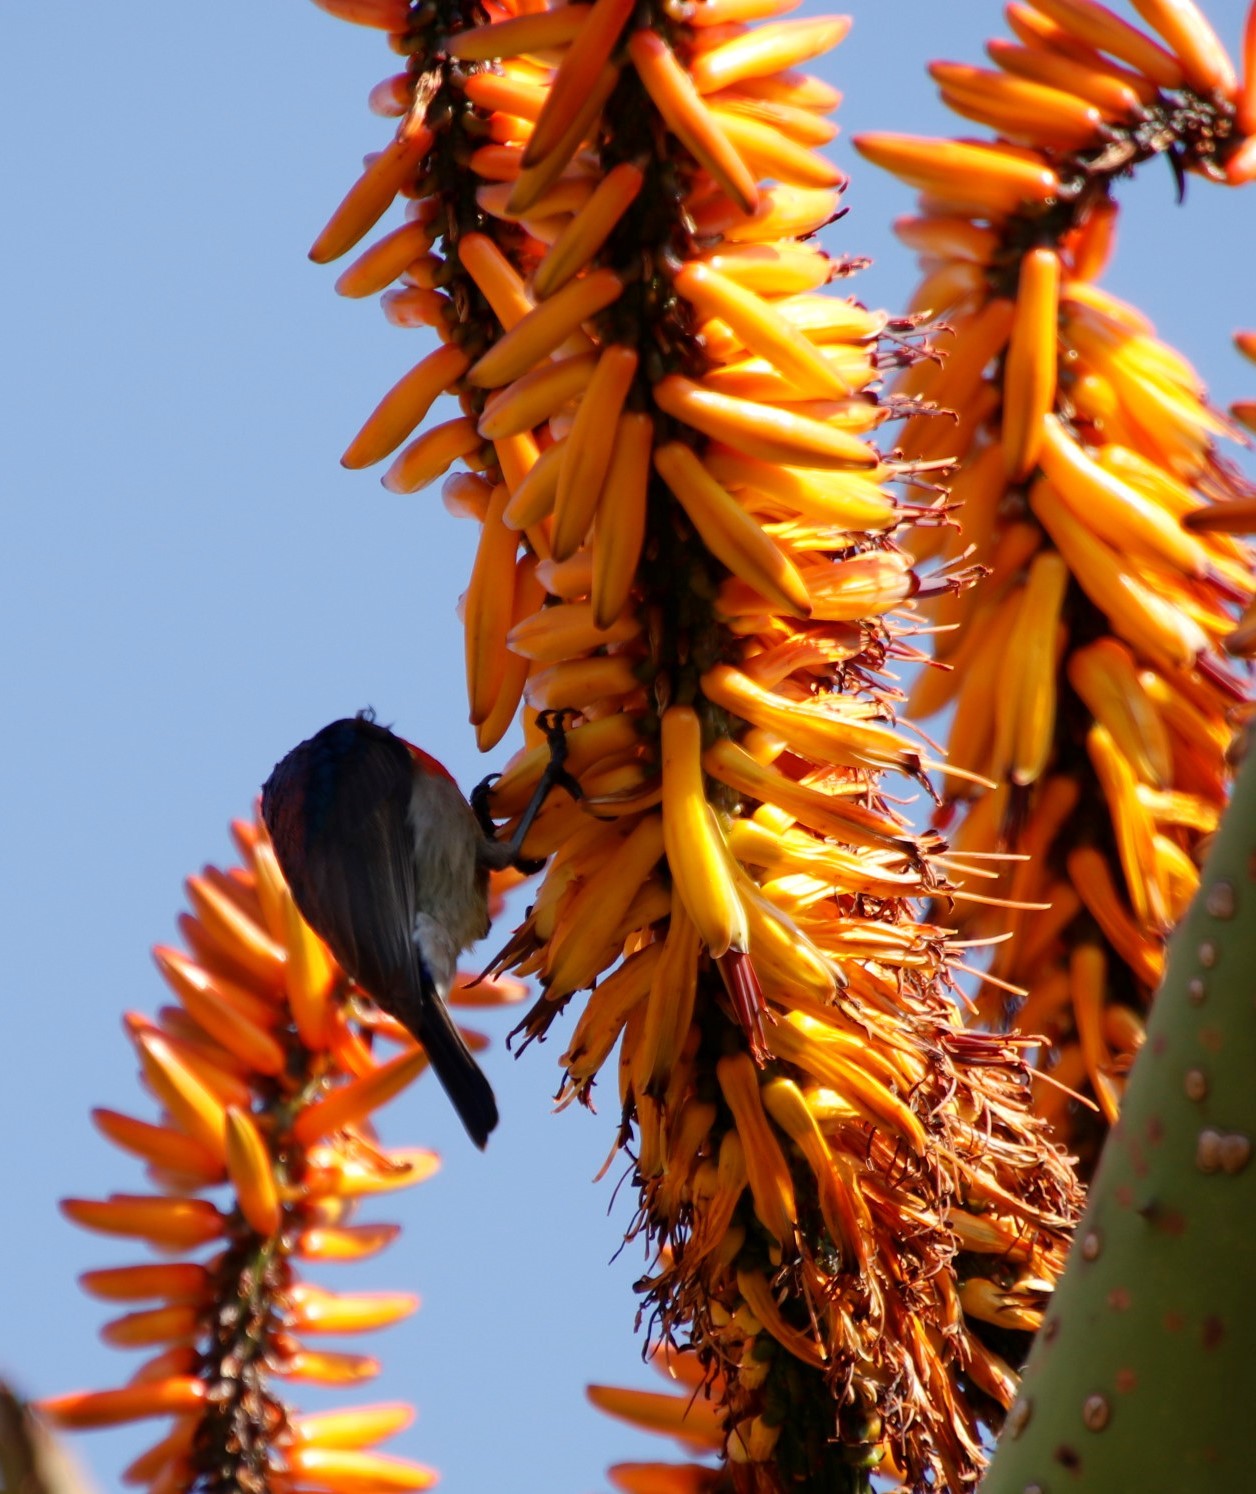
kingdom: Animalia
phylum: Chordata
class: Aves
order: Passeriformes
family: Nectariniidae
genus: Cinnyris
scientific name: Cinnyris chalybeus
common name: Southern double-collared sunbird
